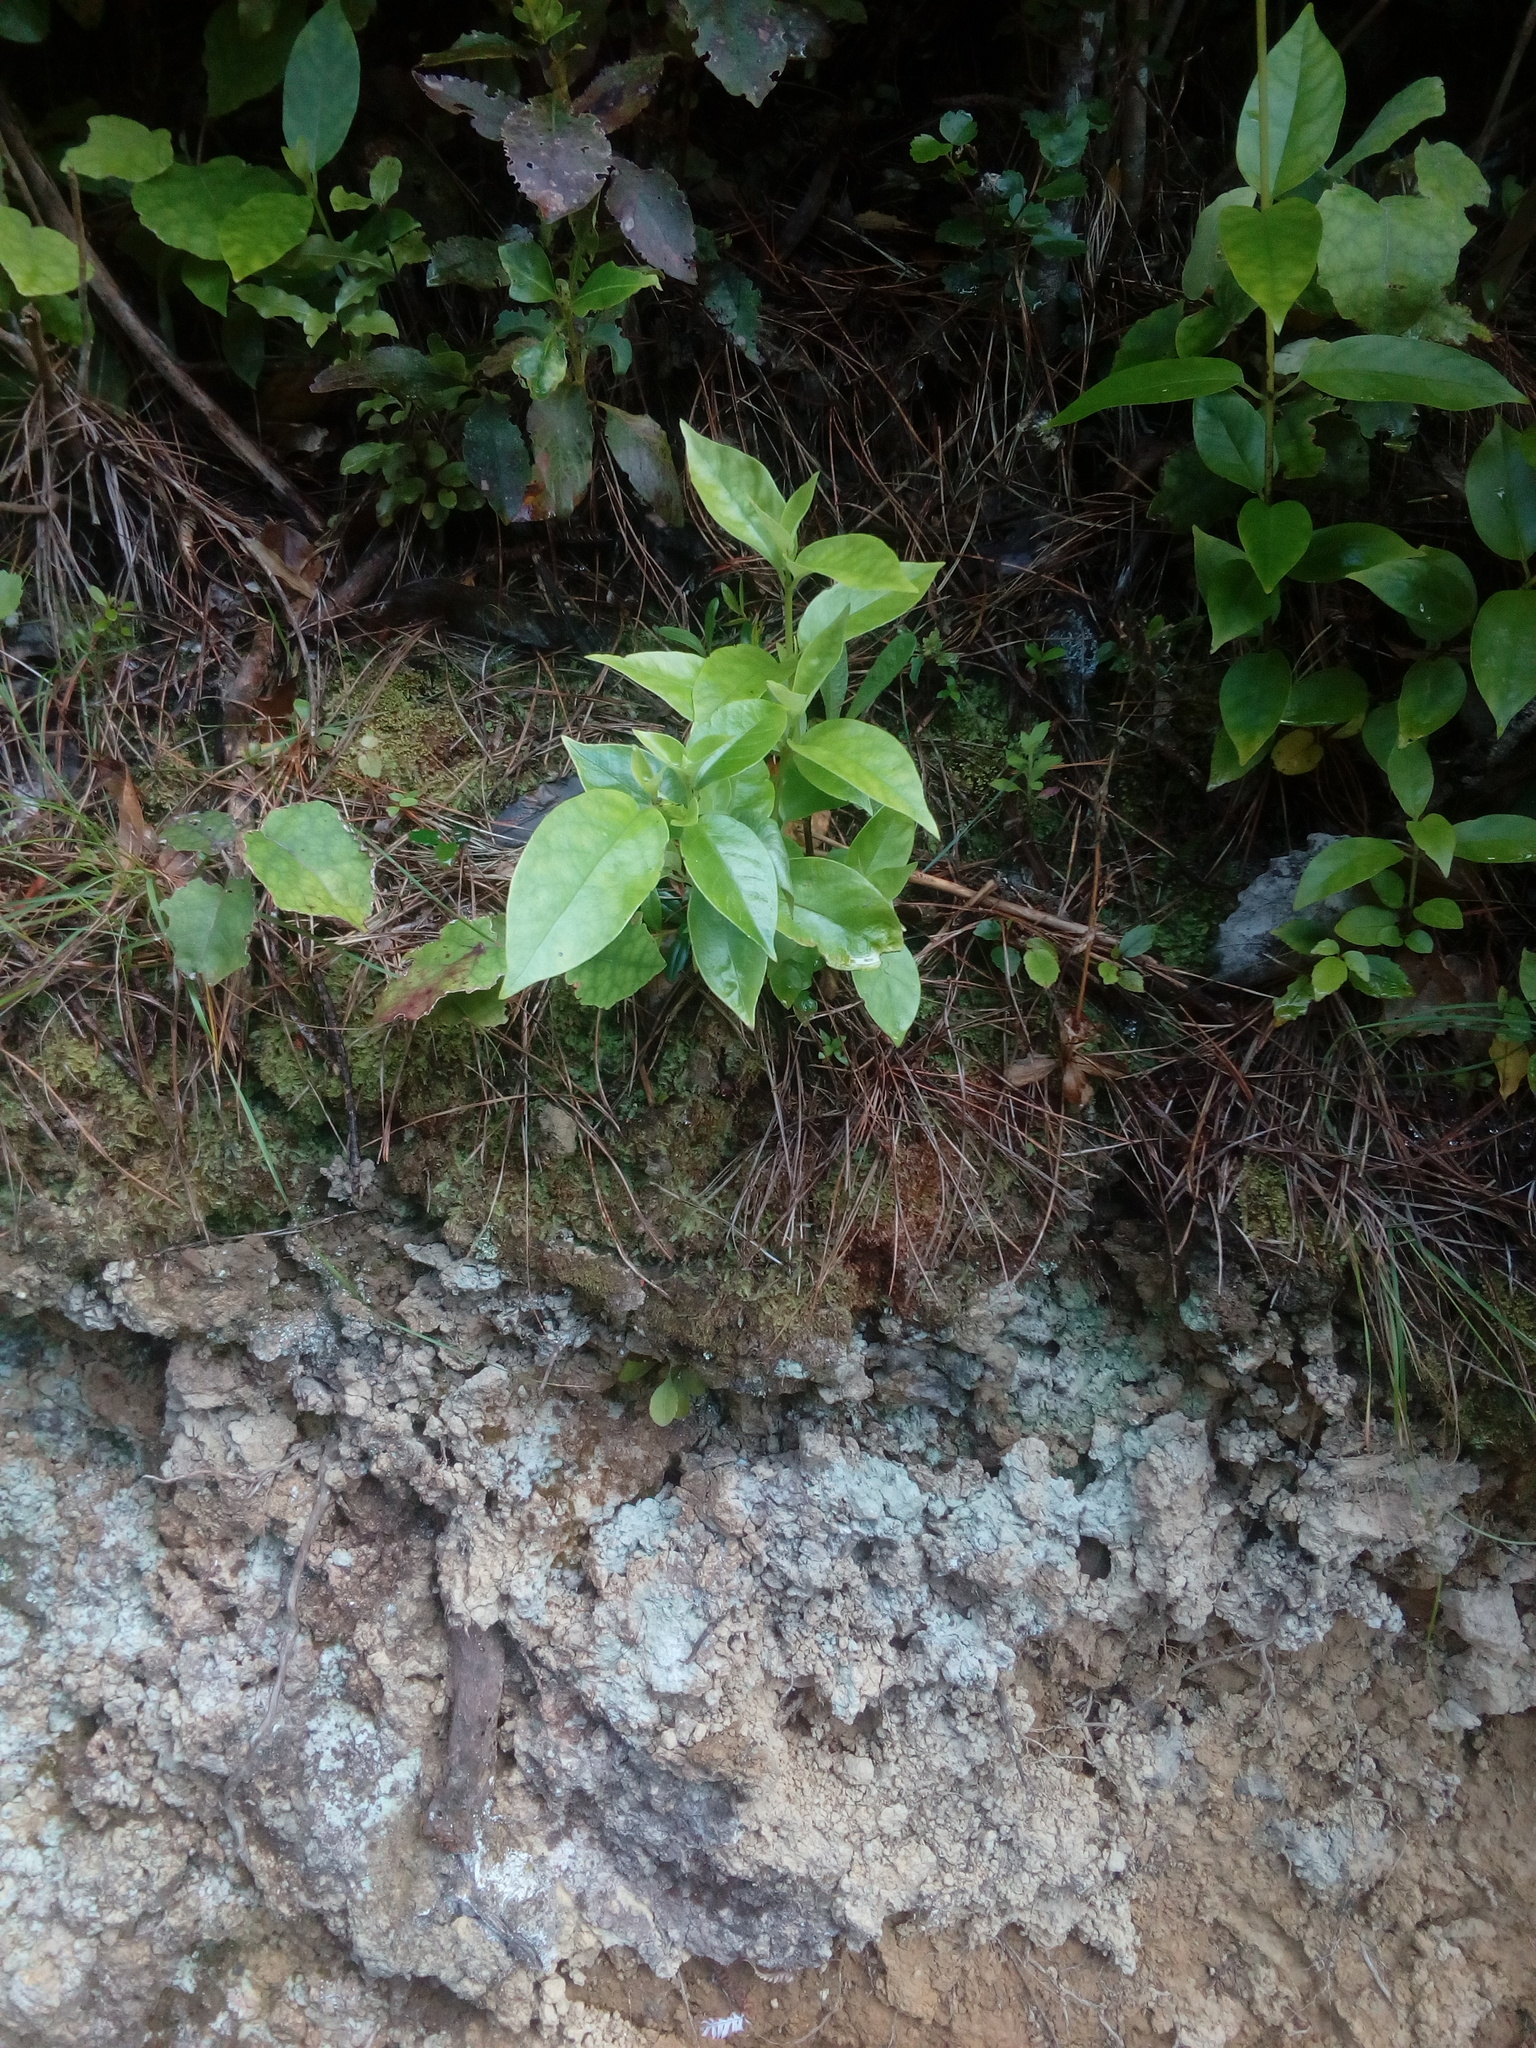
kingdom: Plantae
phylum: Tracheophyta
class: Magnoliopsida
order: Gentianales
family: Loganiaceae
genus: Geniostoma
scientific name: Geniostoma ligustrifolium
